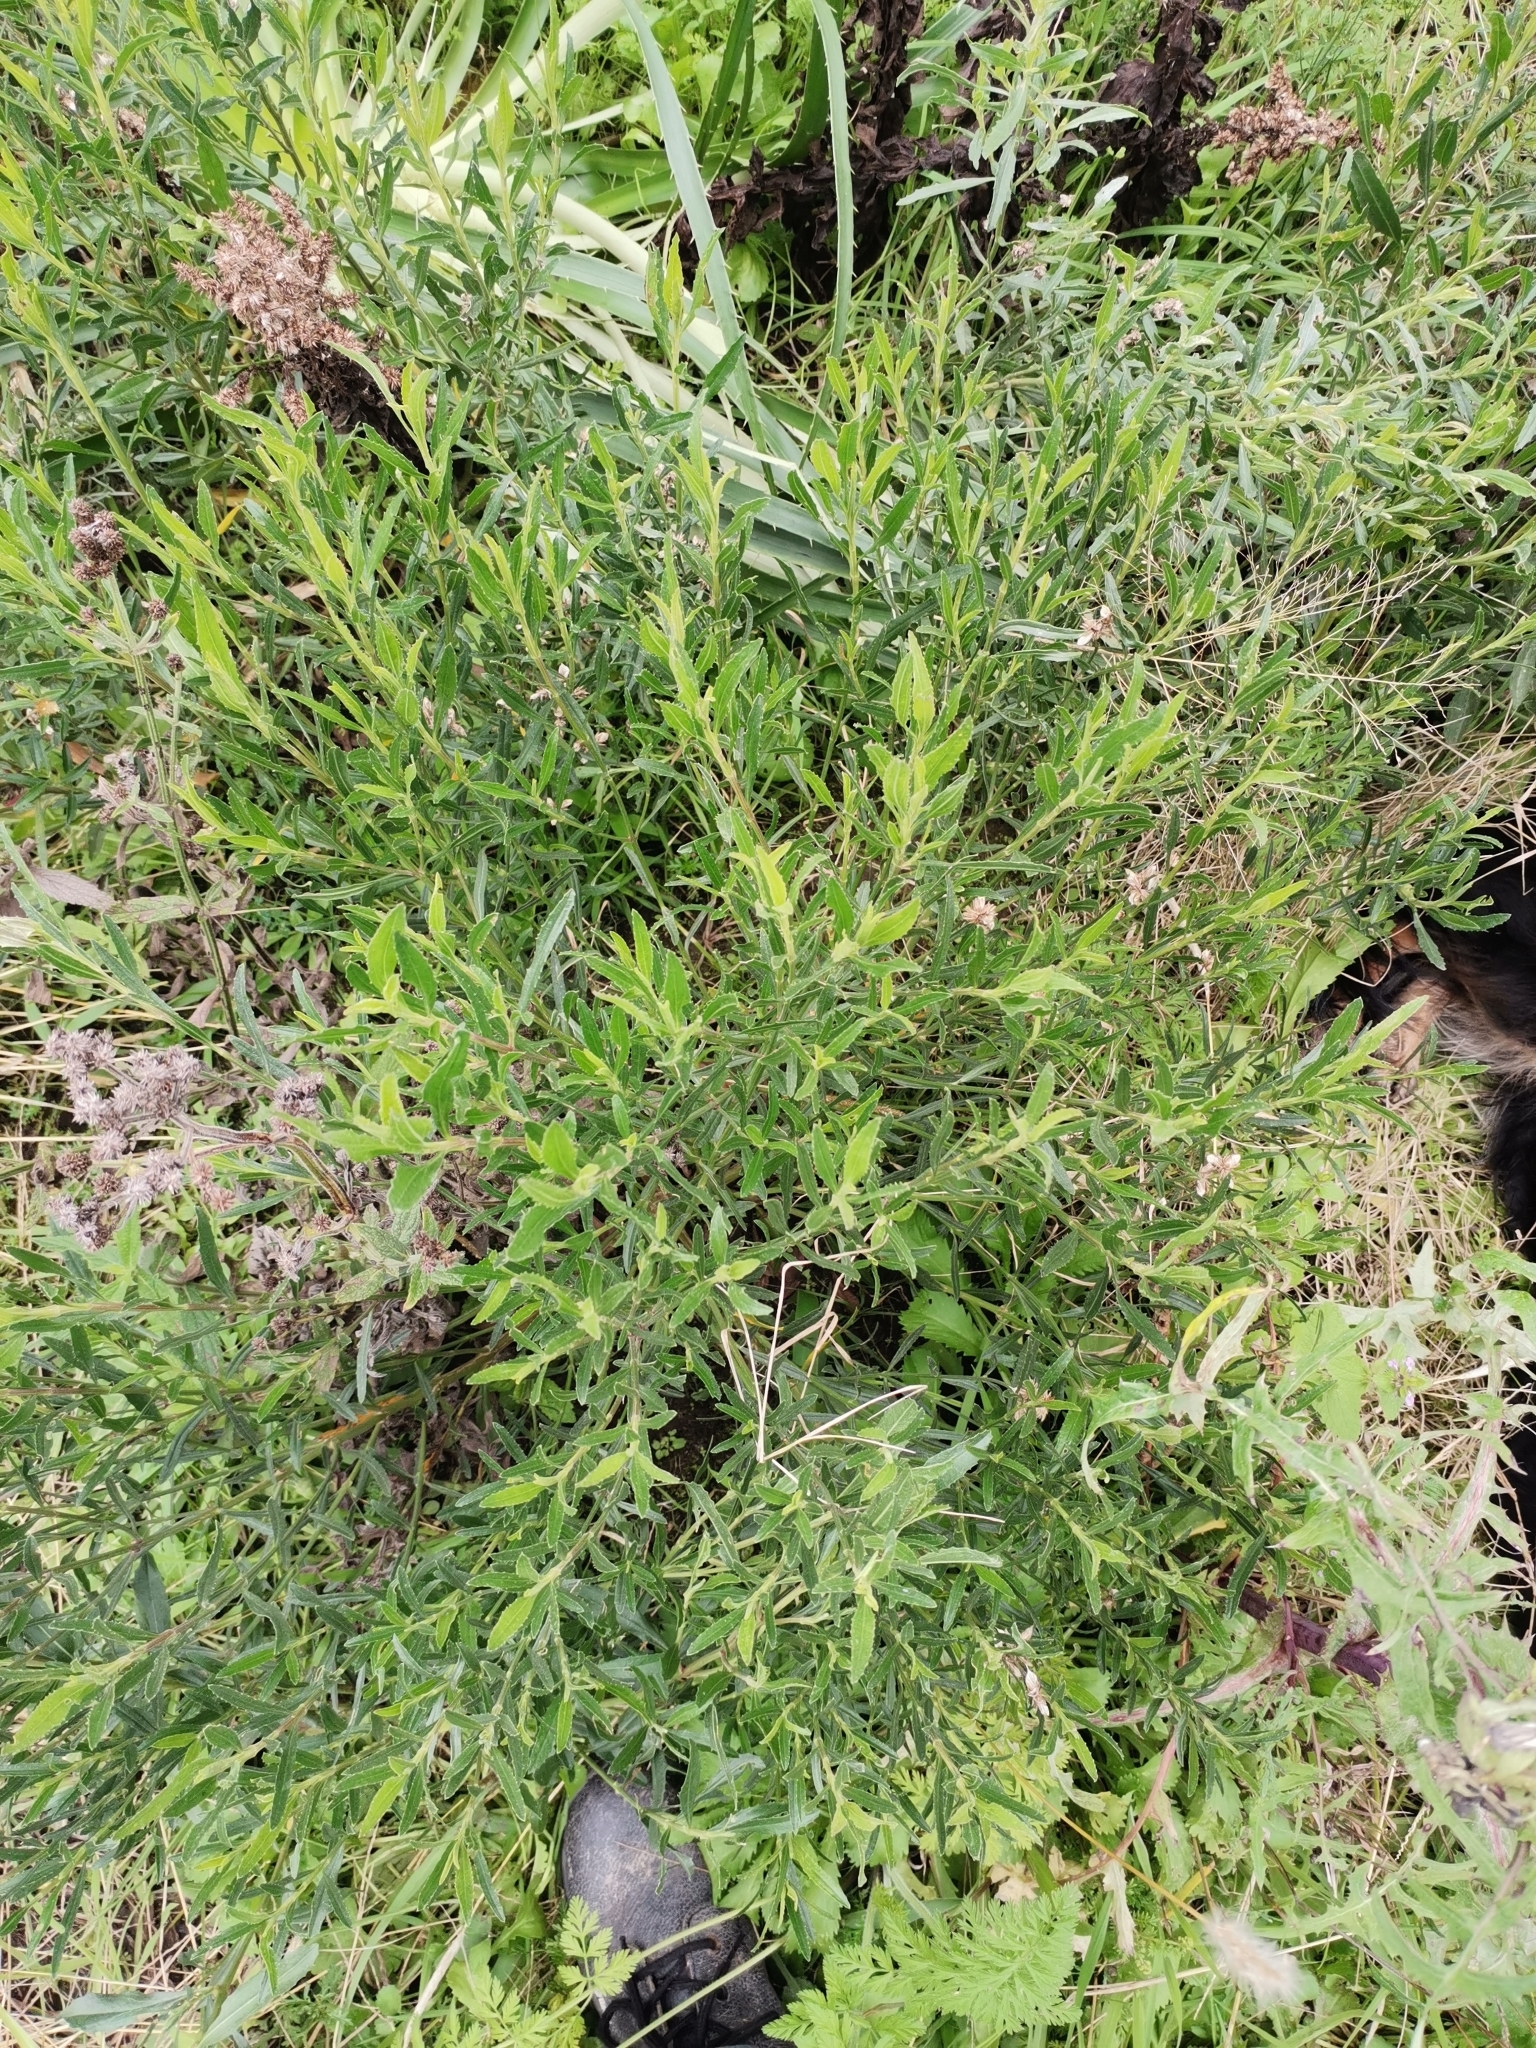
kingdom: Plantae
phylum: Tracheophyta
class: Magnoliopsida
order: Asterales
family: Asteraceae
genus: Baccharis
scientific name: Baccharis spicata
